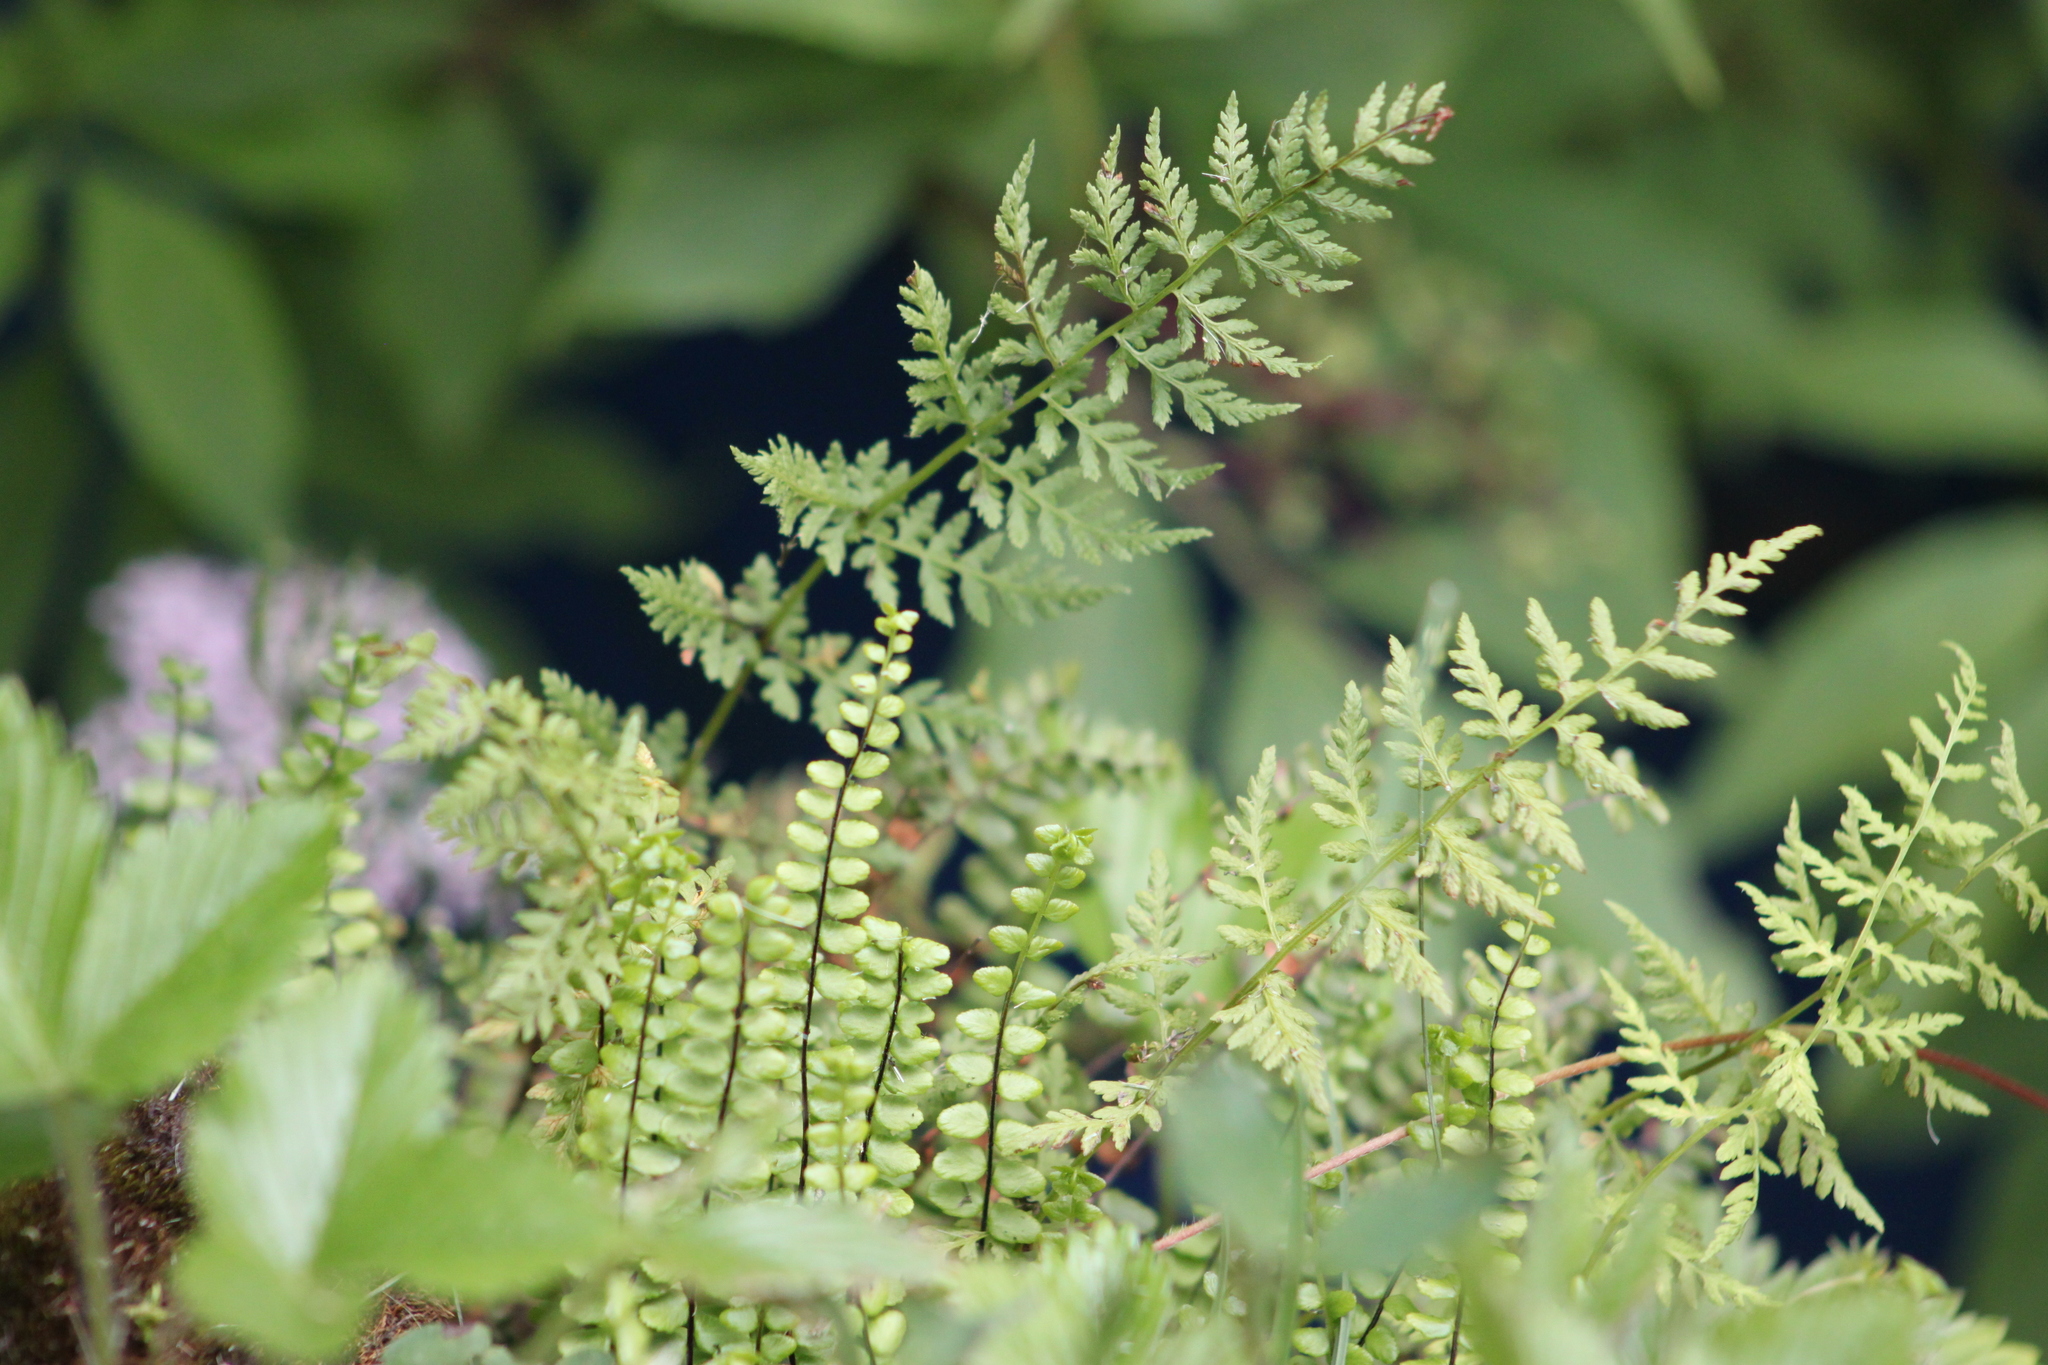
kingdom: Plantae
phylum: Tracheophyta
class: Polypodiopsida
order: Polypodiales
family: Aspleniaceae
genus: Asplenium
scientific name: Asplenium trichomanes
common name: Maidenhair spleenwort
